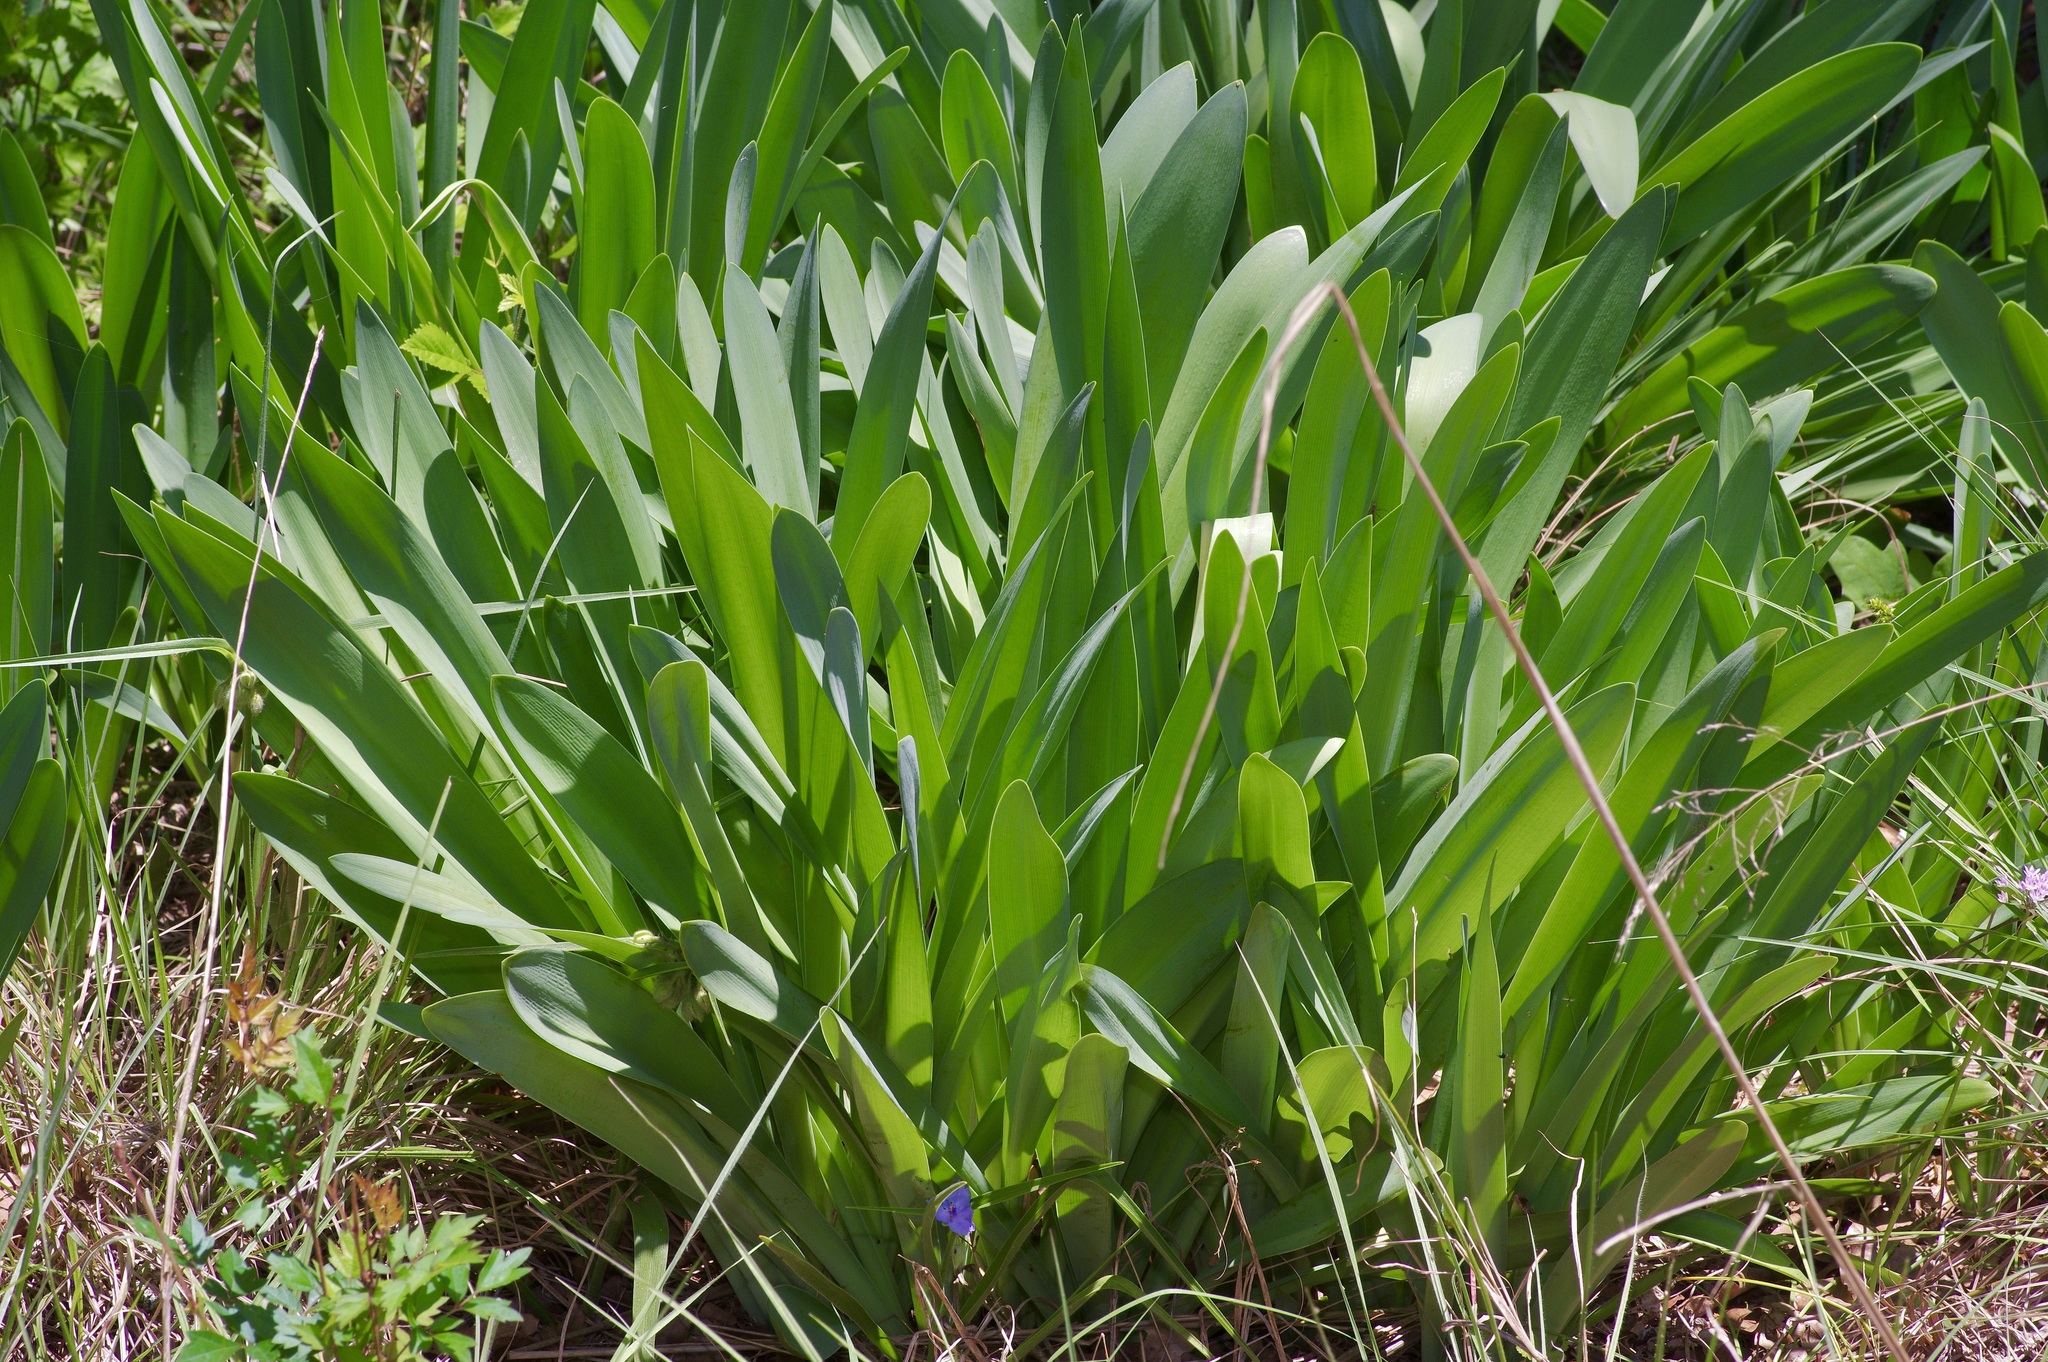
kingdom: Plantae
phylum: Tracheophyta
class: Liliopsida
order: Asparagales
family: Amaryllidaceae
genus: Hymenocallis
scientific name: Hymenocallis occidentalis
